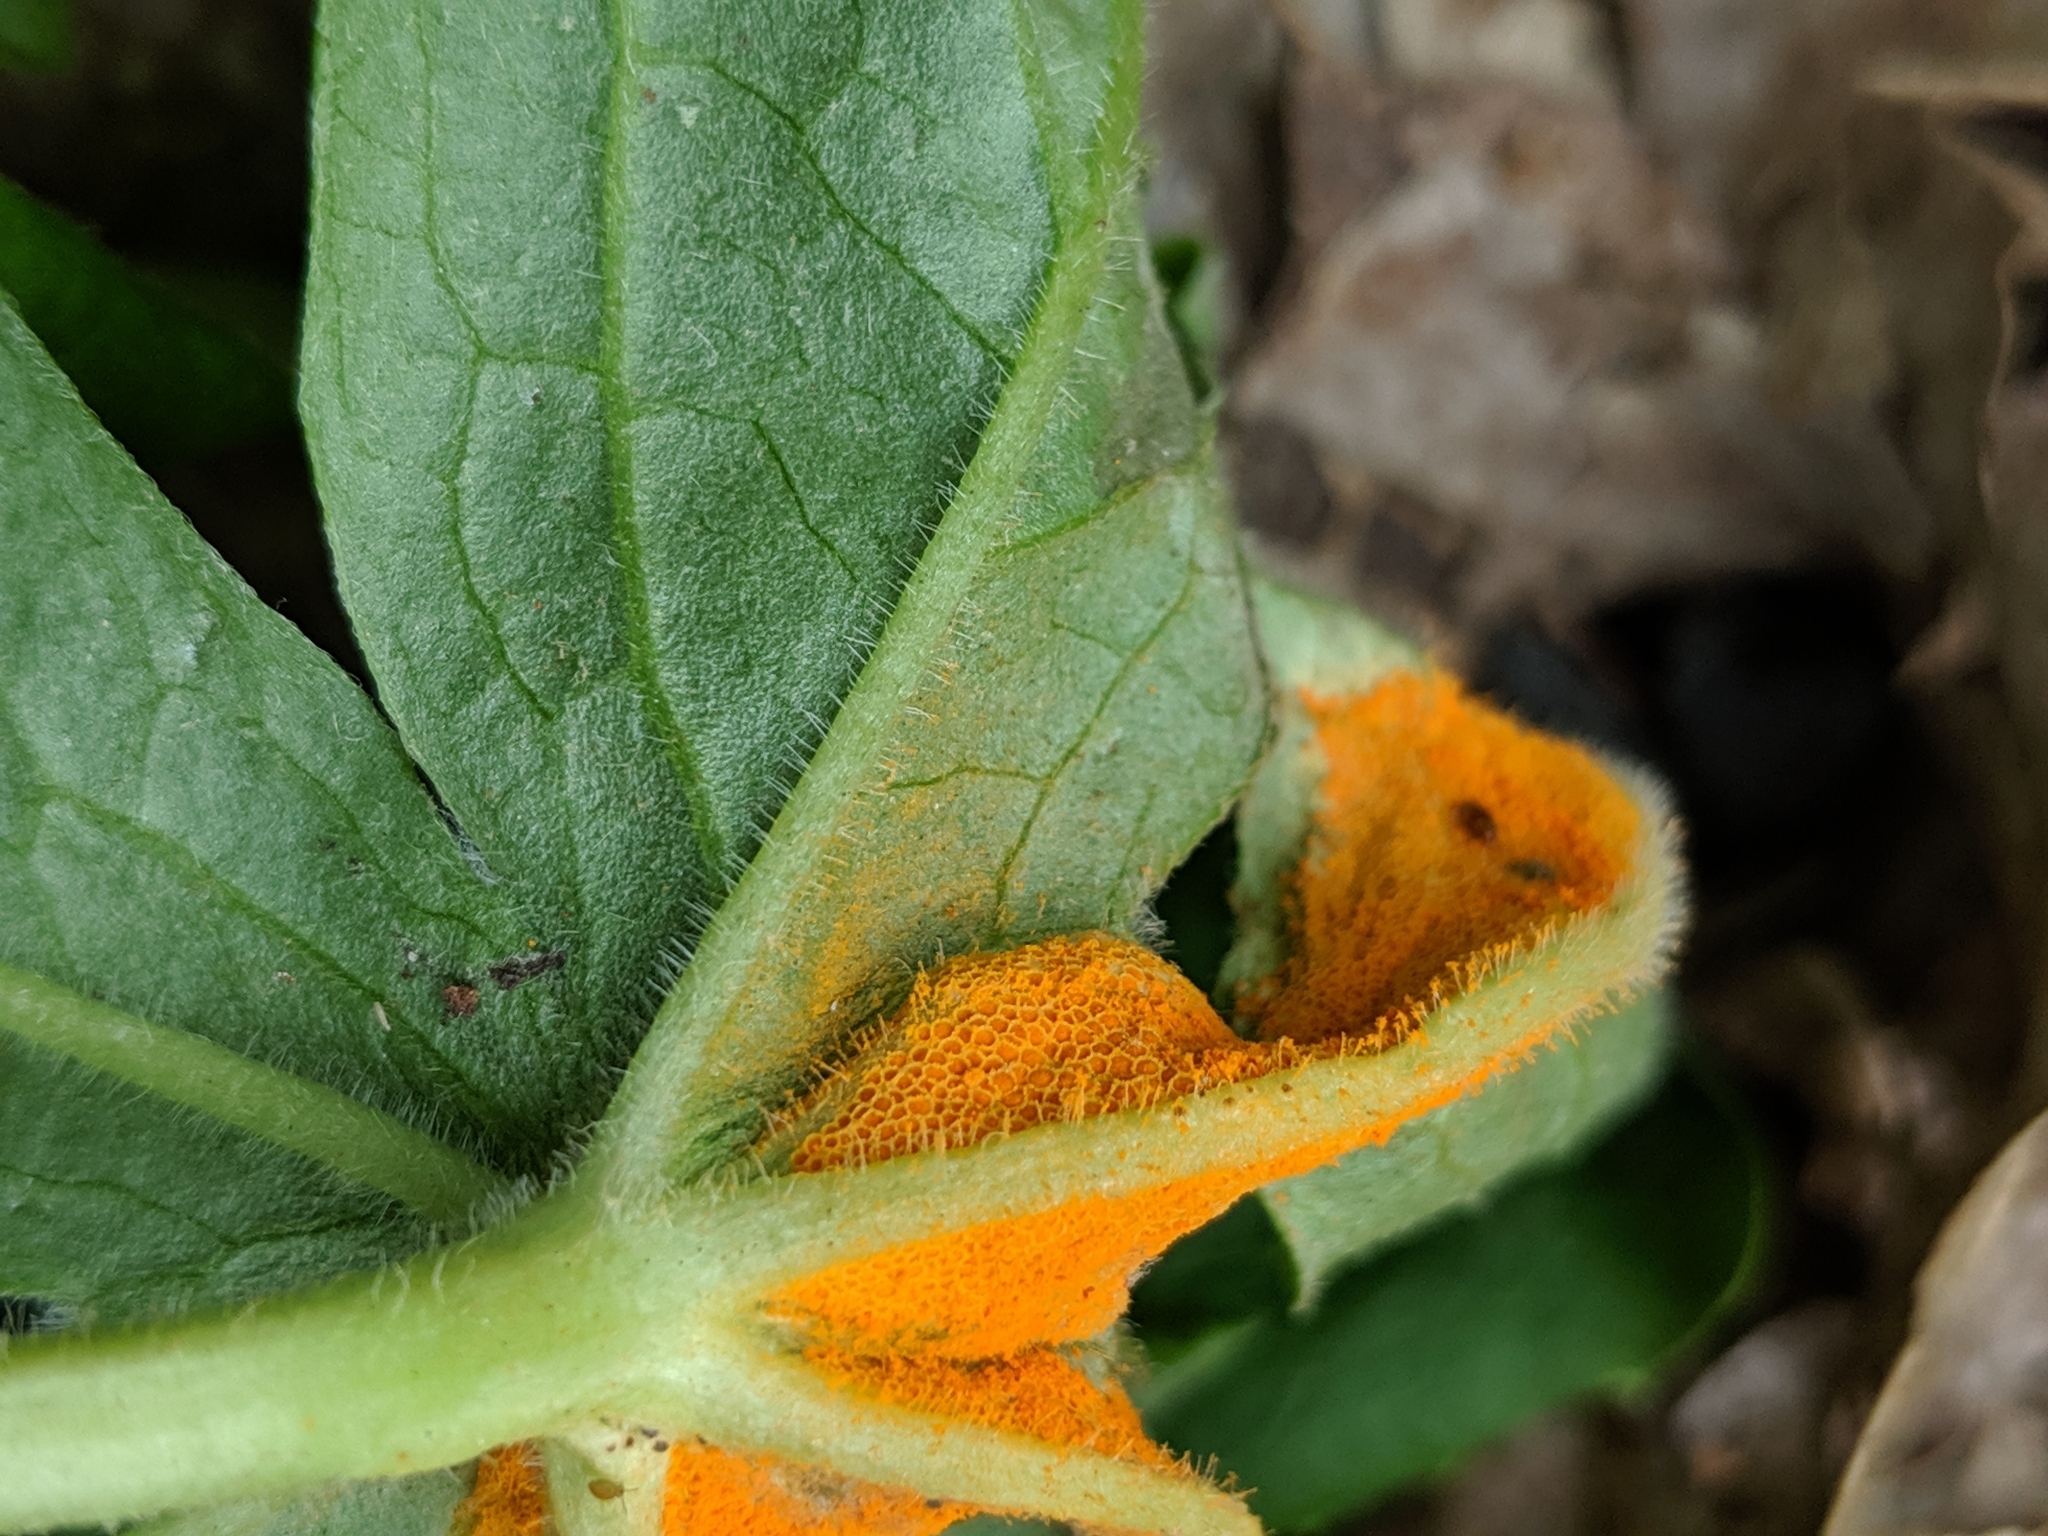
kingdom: Fungi
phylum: Basidiomycota
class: Pucciniomycetes
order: Pucciniales
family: Pucciniaceae
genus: Puccinia
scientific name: Puccinia podophylli
